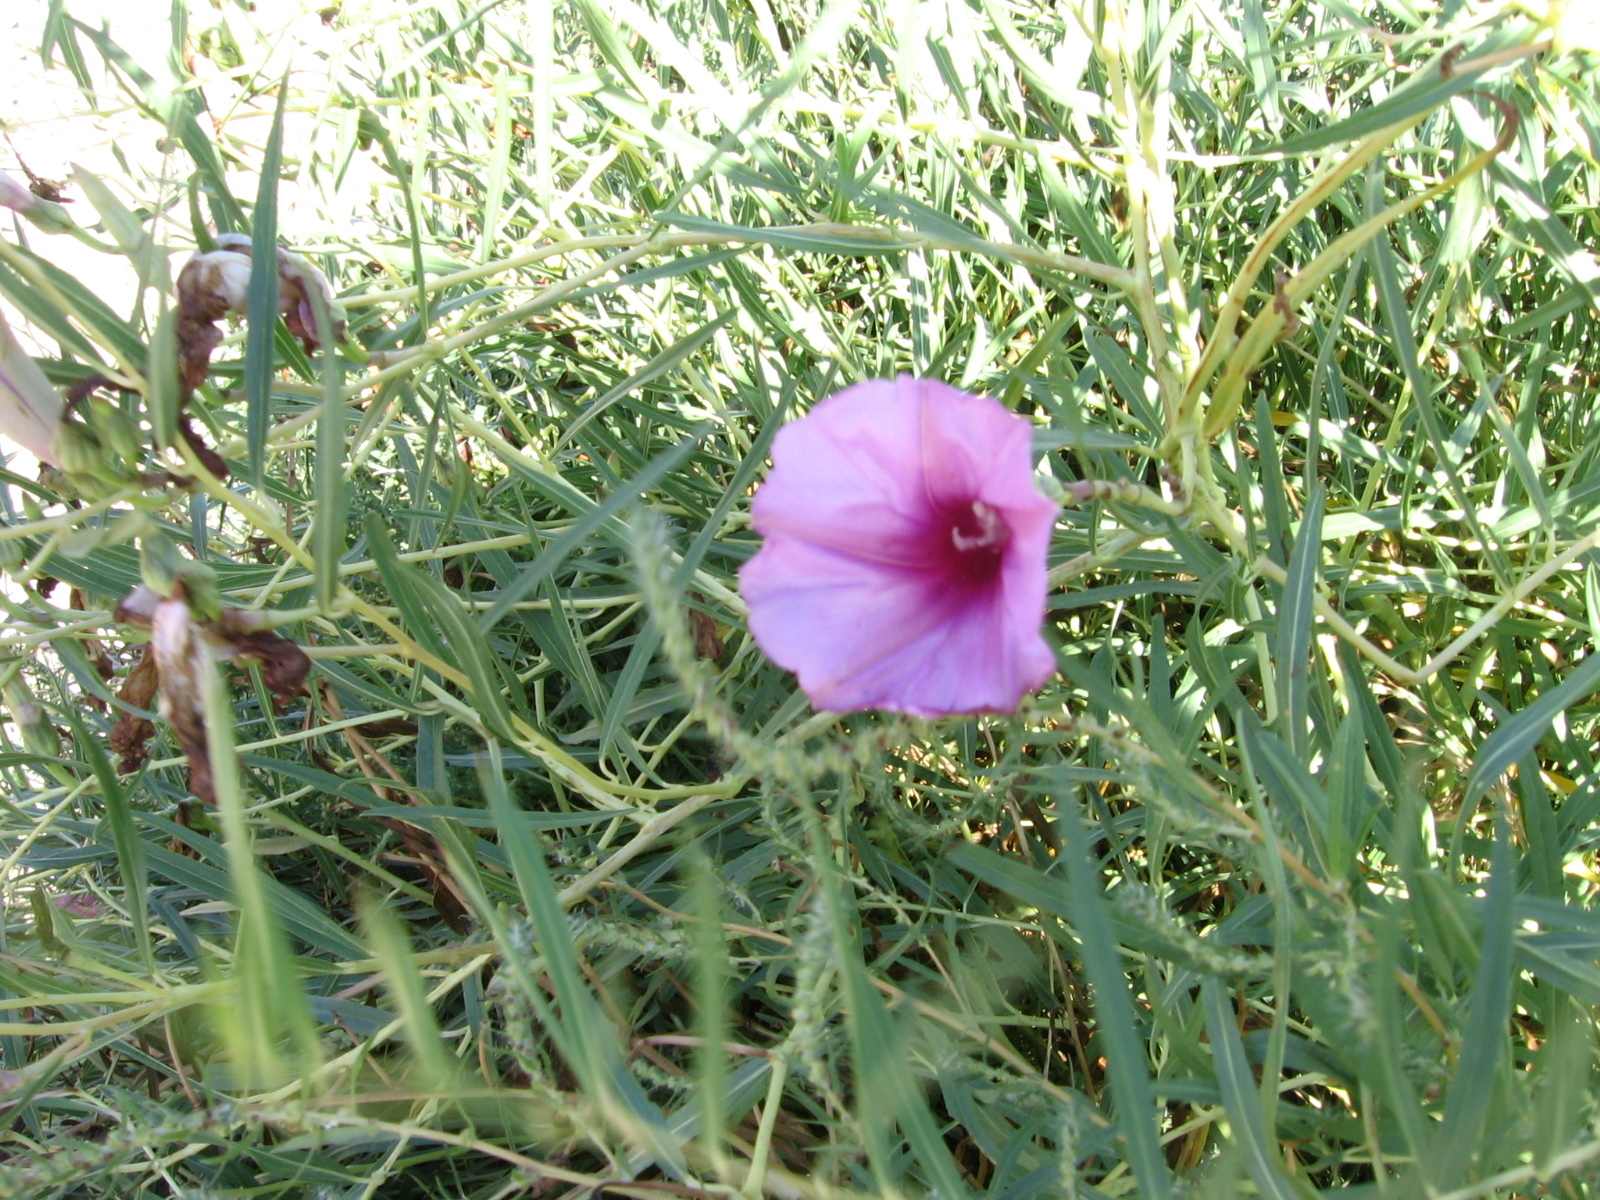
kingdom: Plantae
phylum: Tracheophyta
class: Magnoliopsida
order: Solanales
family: Convolvulaceae
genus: Ipomoea
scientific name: Ipomoea leptophylla
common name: Bush moonflower
